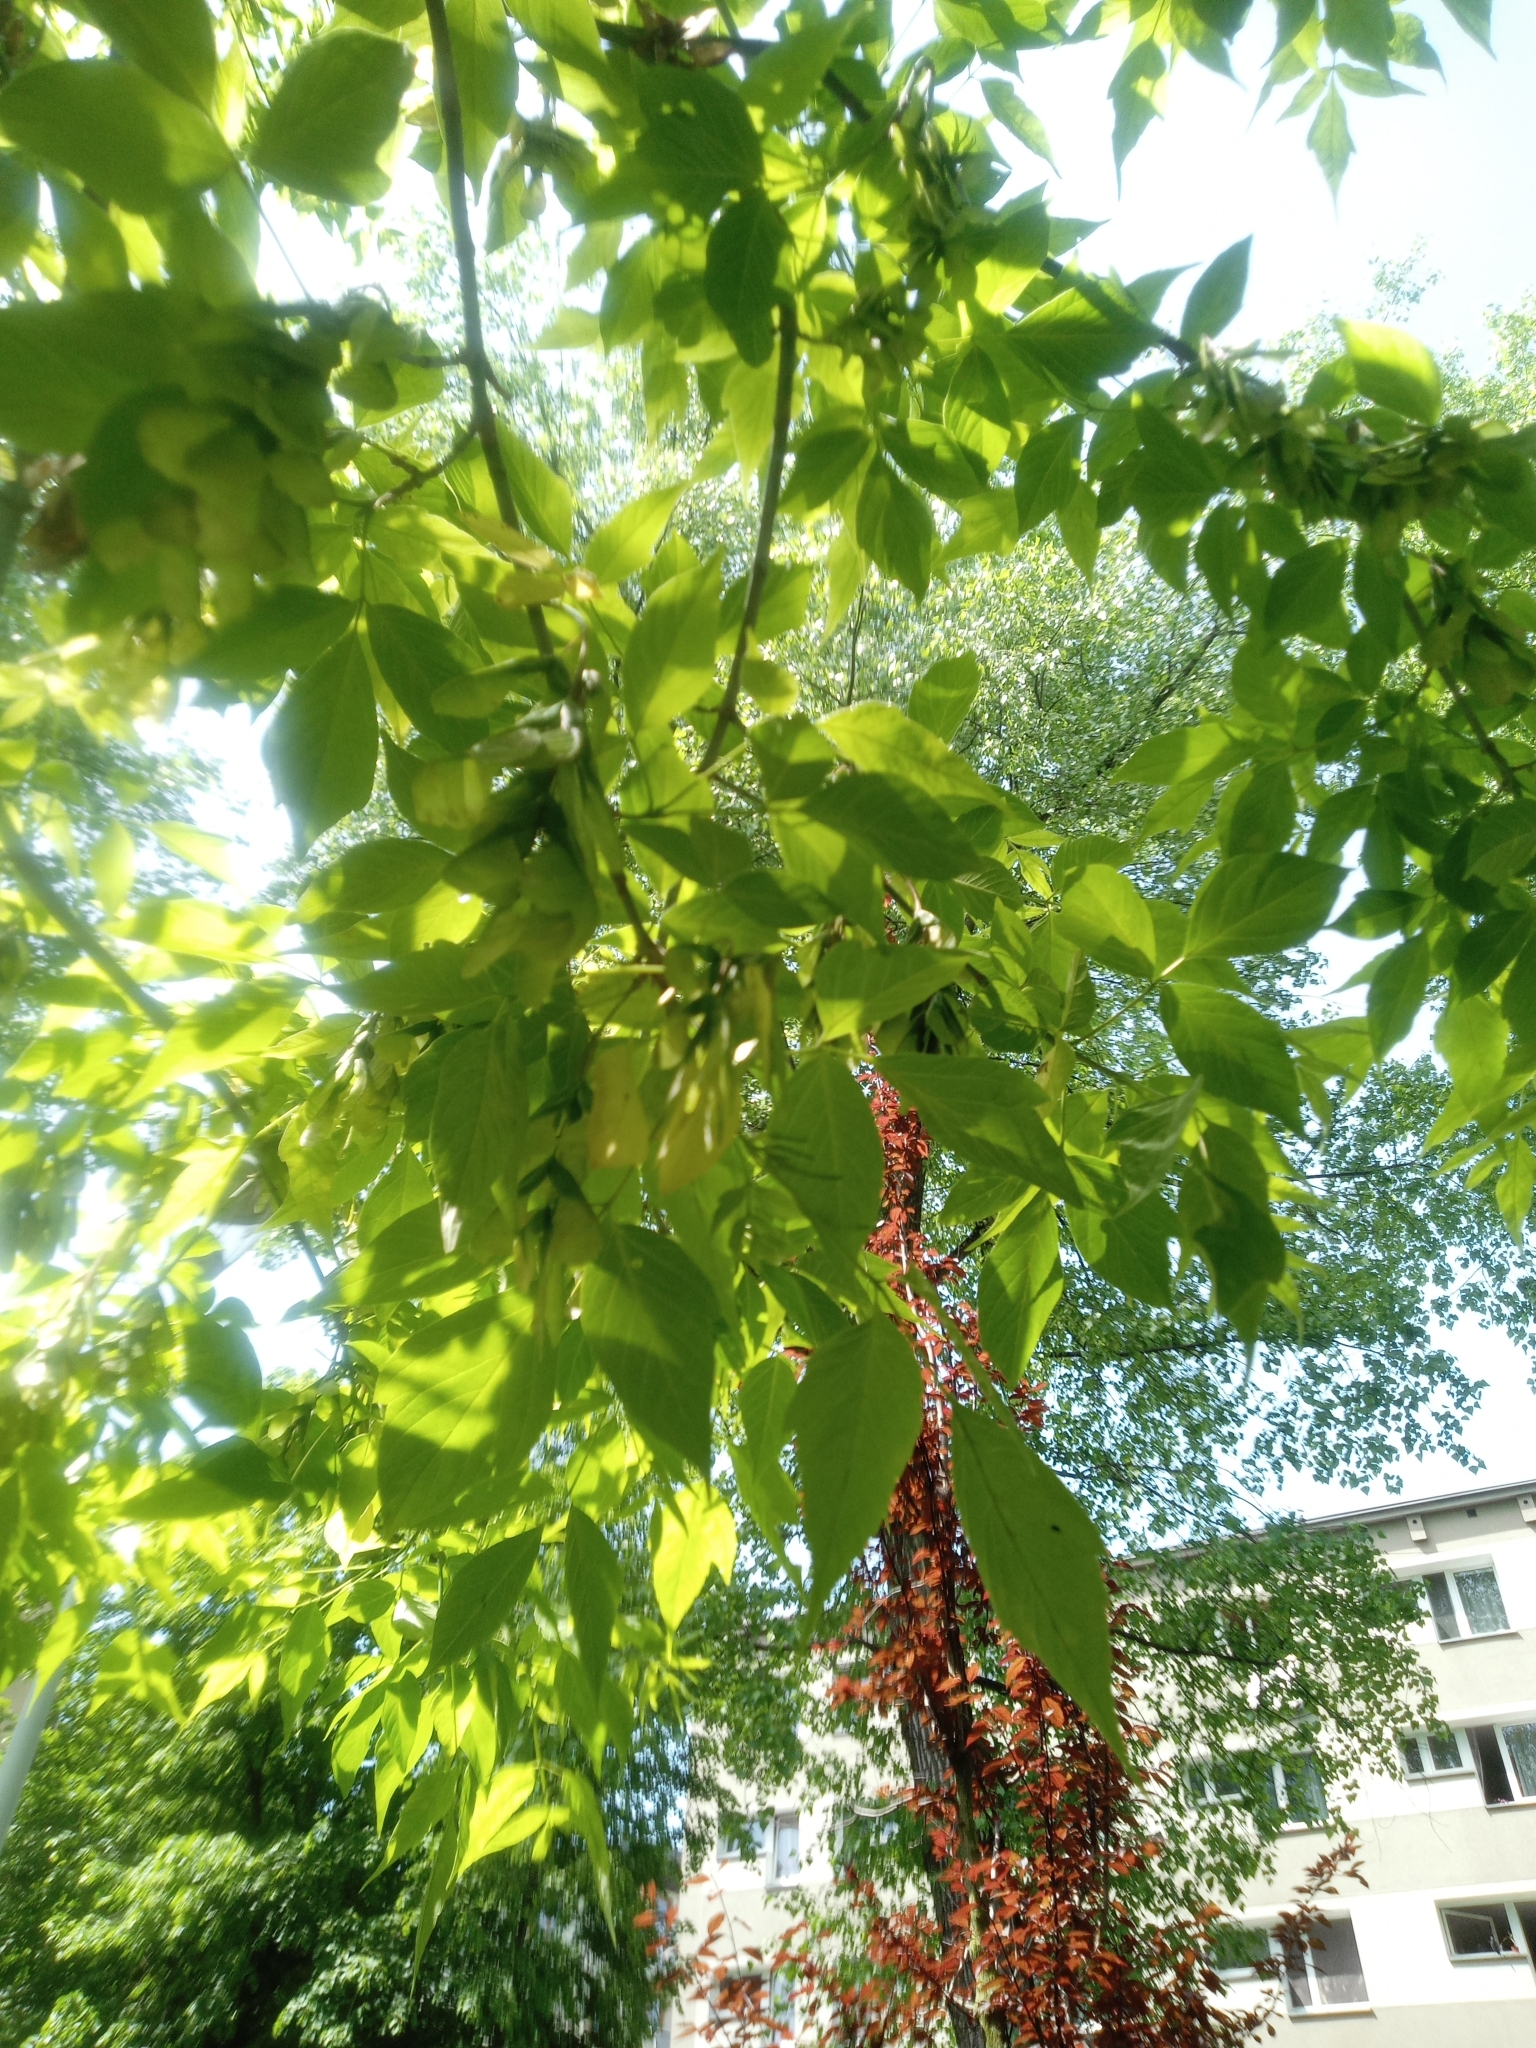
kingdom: Plantae
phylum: Tracheophyta
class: Magnoliopsida
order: Sapindales
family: Sapindaceae
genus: Acer
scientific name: Acer negundo
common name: Ashleaf maple
